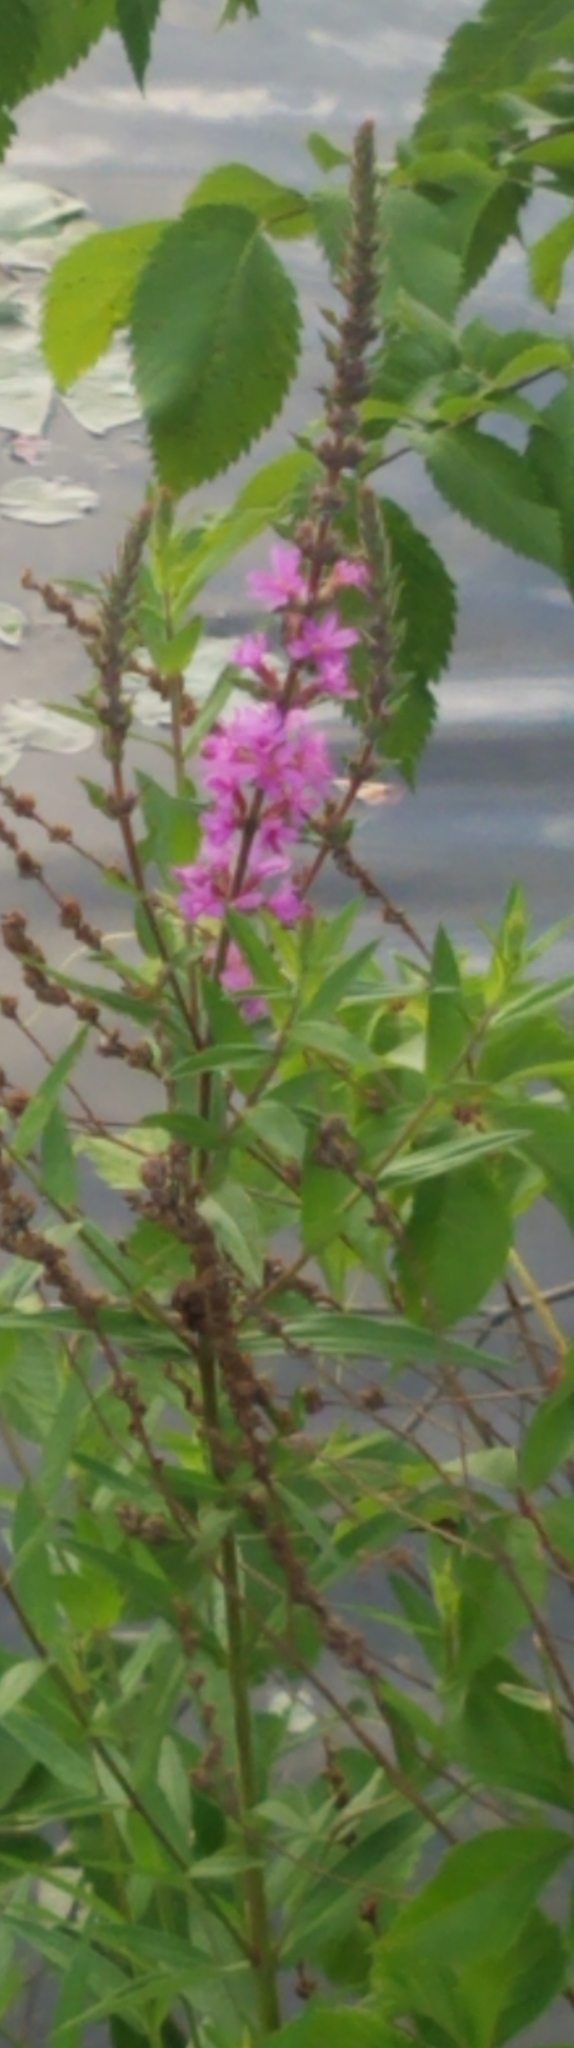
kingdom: Plantae
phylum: Tracheophyta
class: Magnoliopsida
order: Myrtales
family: Lythraceae
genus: Lythrum
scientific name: Lythrum salicaria
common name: Purple loosestrife
